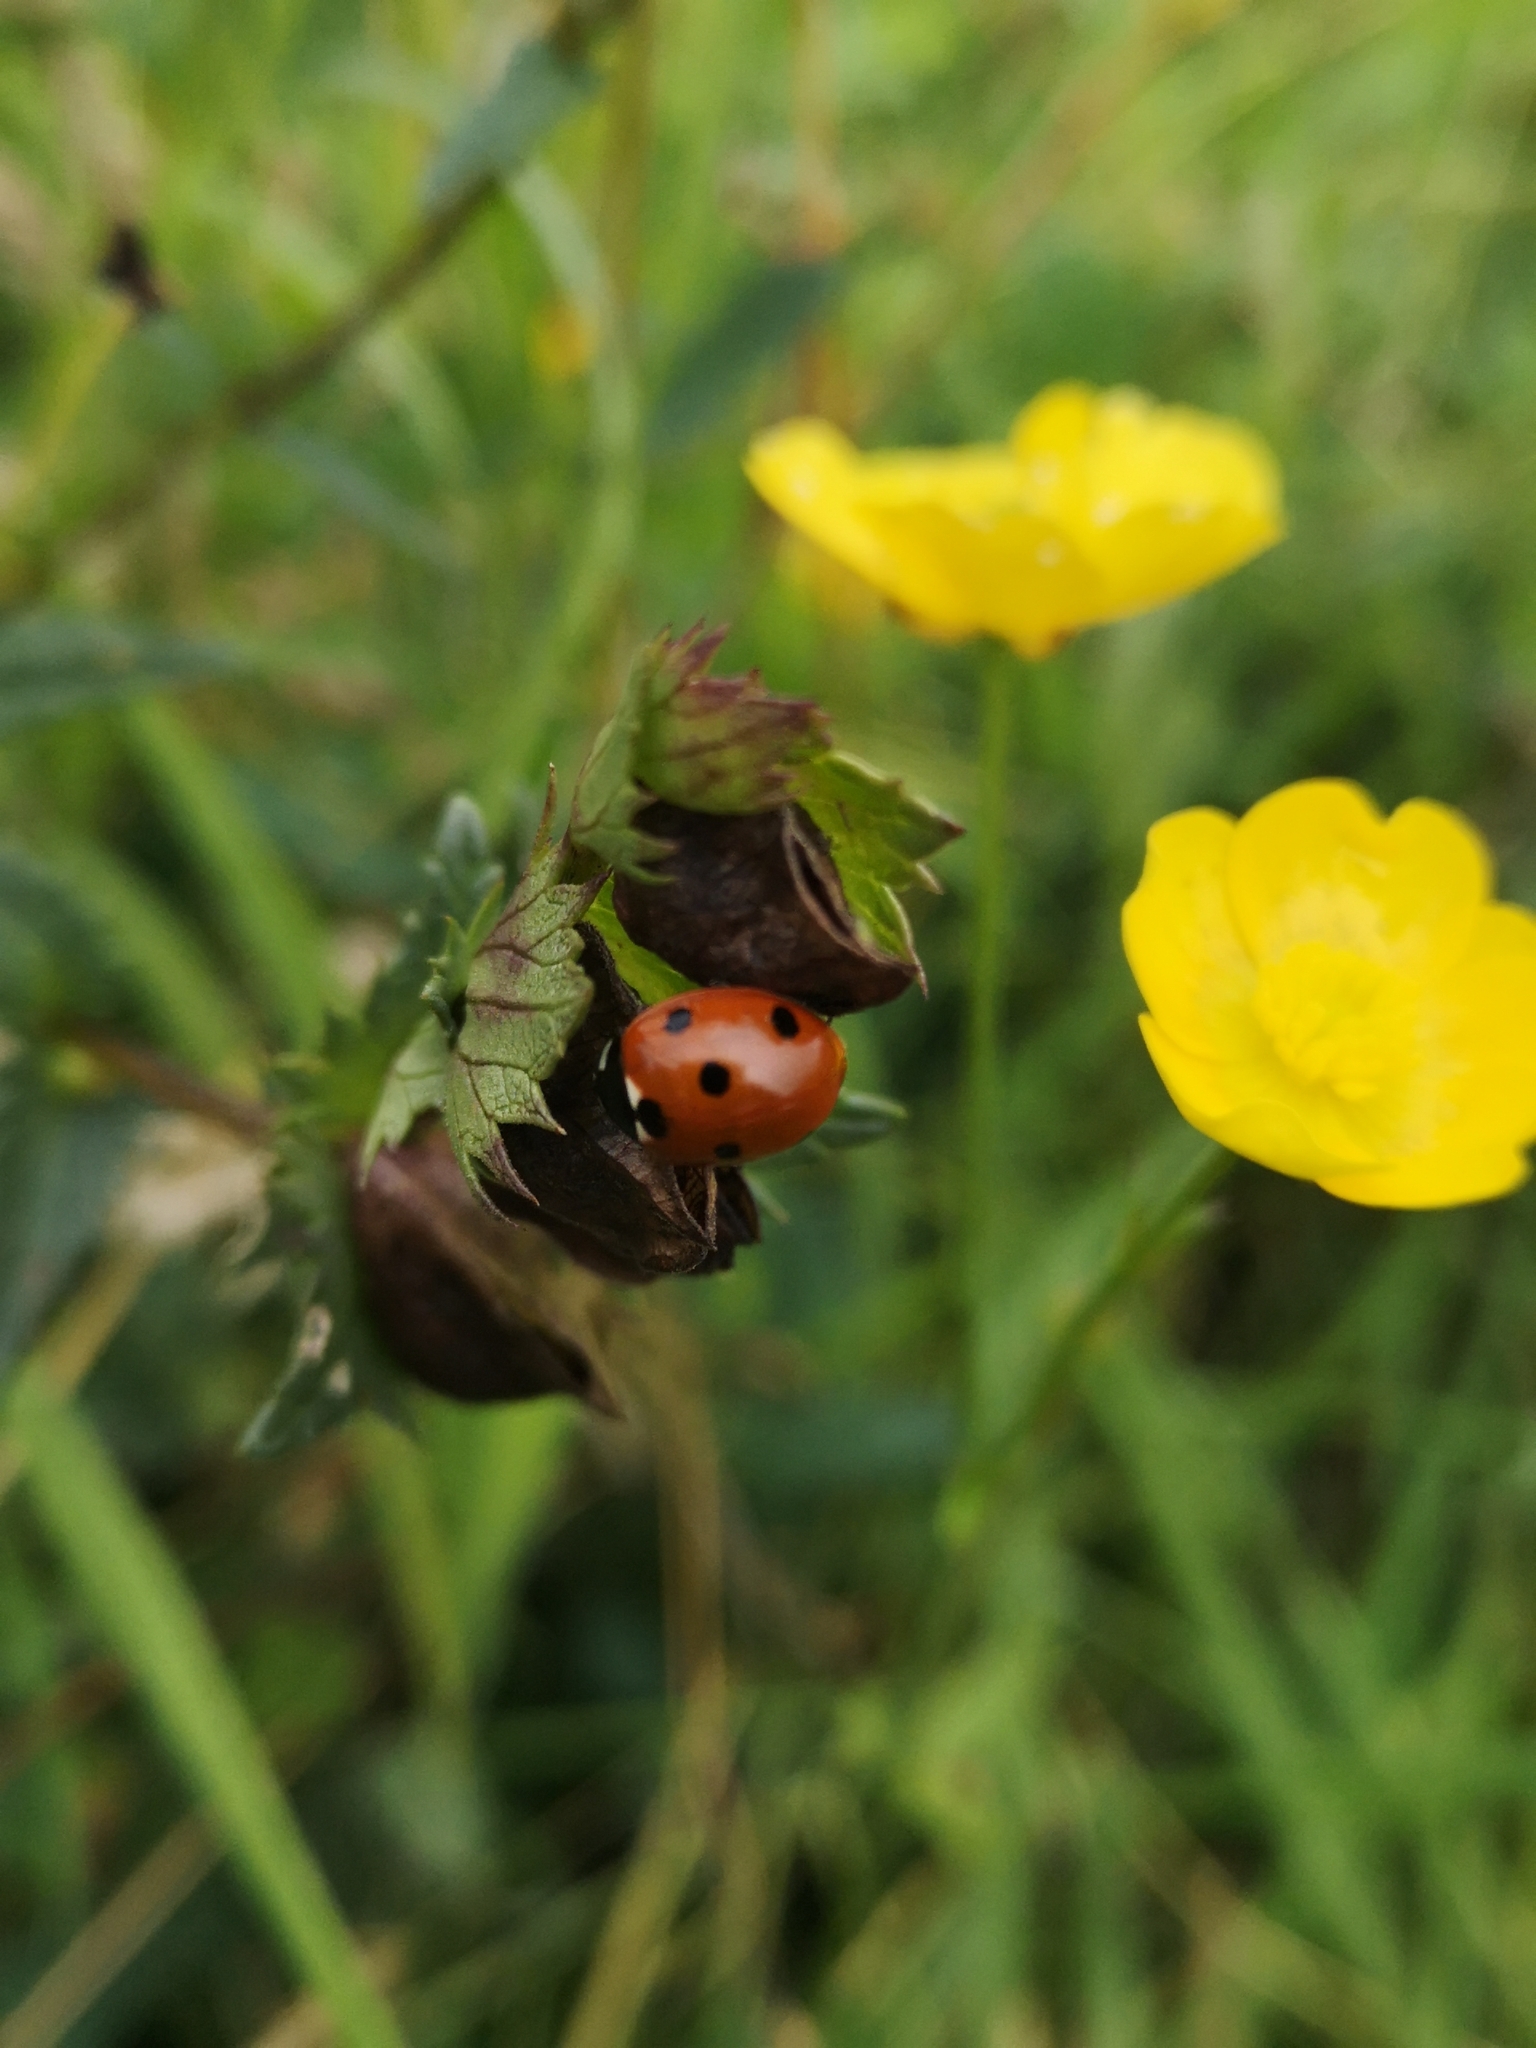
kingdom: Animalia
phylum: Arthropoda
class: Insecta
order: Coleoptera
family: Coccinellidae
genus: Coccinella
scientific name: Coccinella septempunctata
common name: Sevenspotted lady beetle
